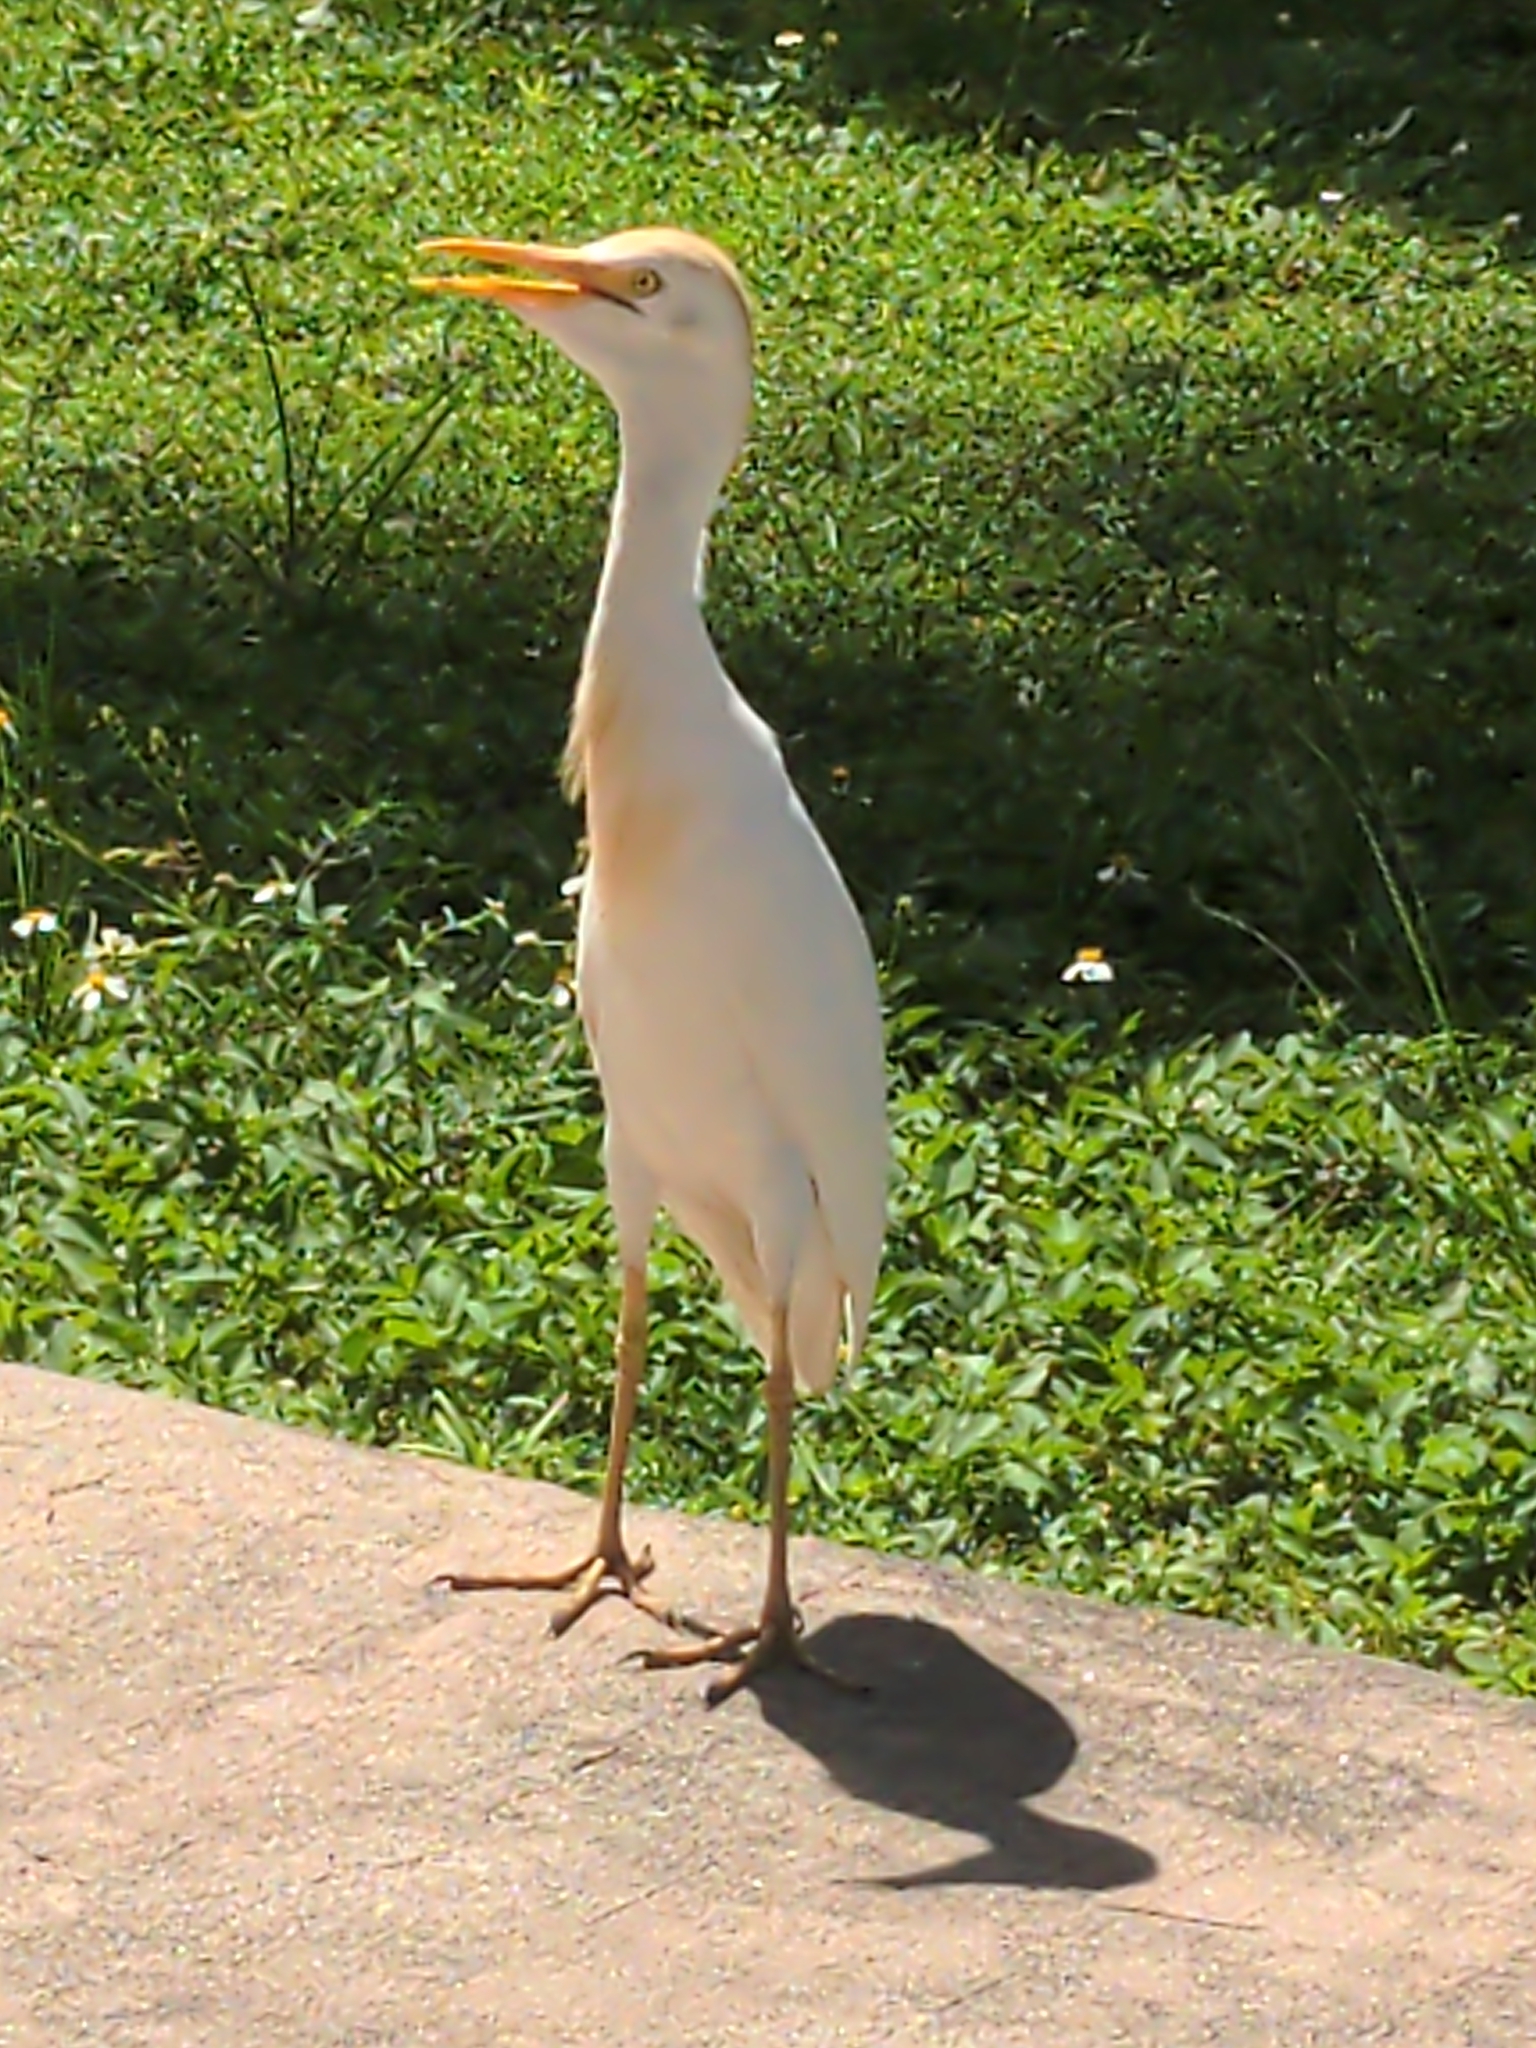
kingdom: Animalia
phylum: Chordata
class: Aves
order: Pelecaniformes
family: Ardeidae
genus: Bubulcus
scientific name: Bubulcus ibis
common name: Cattle egret
